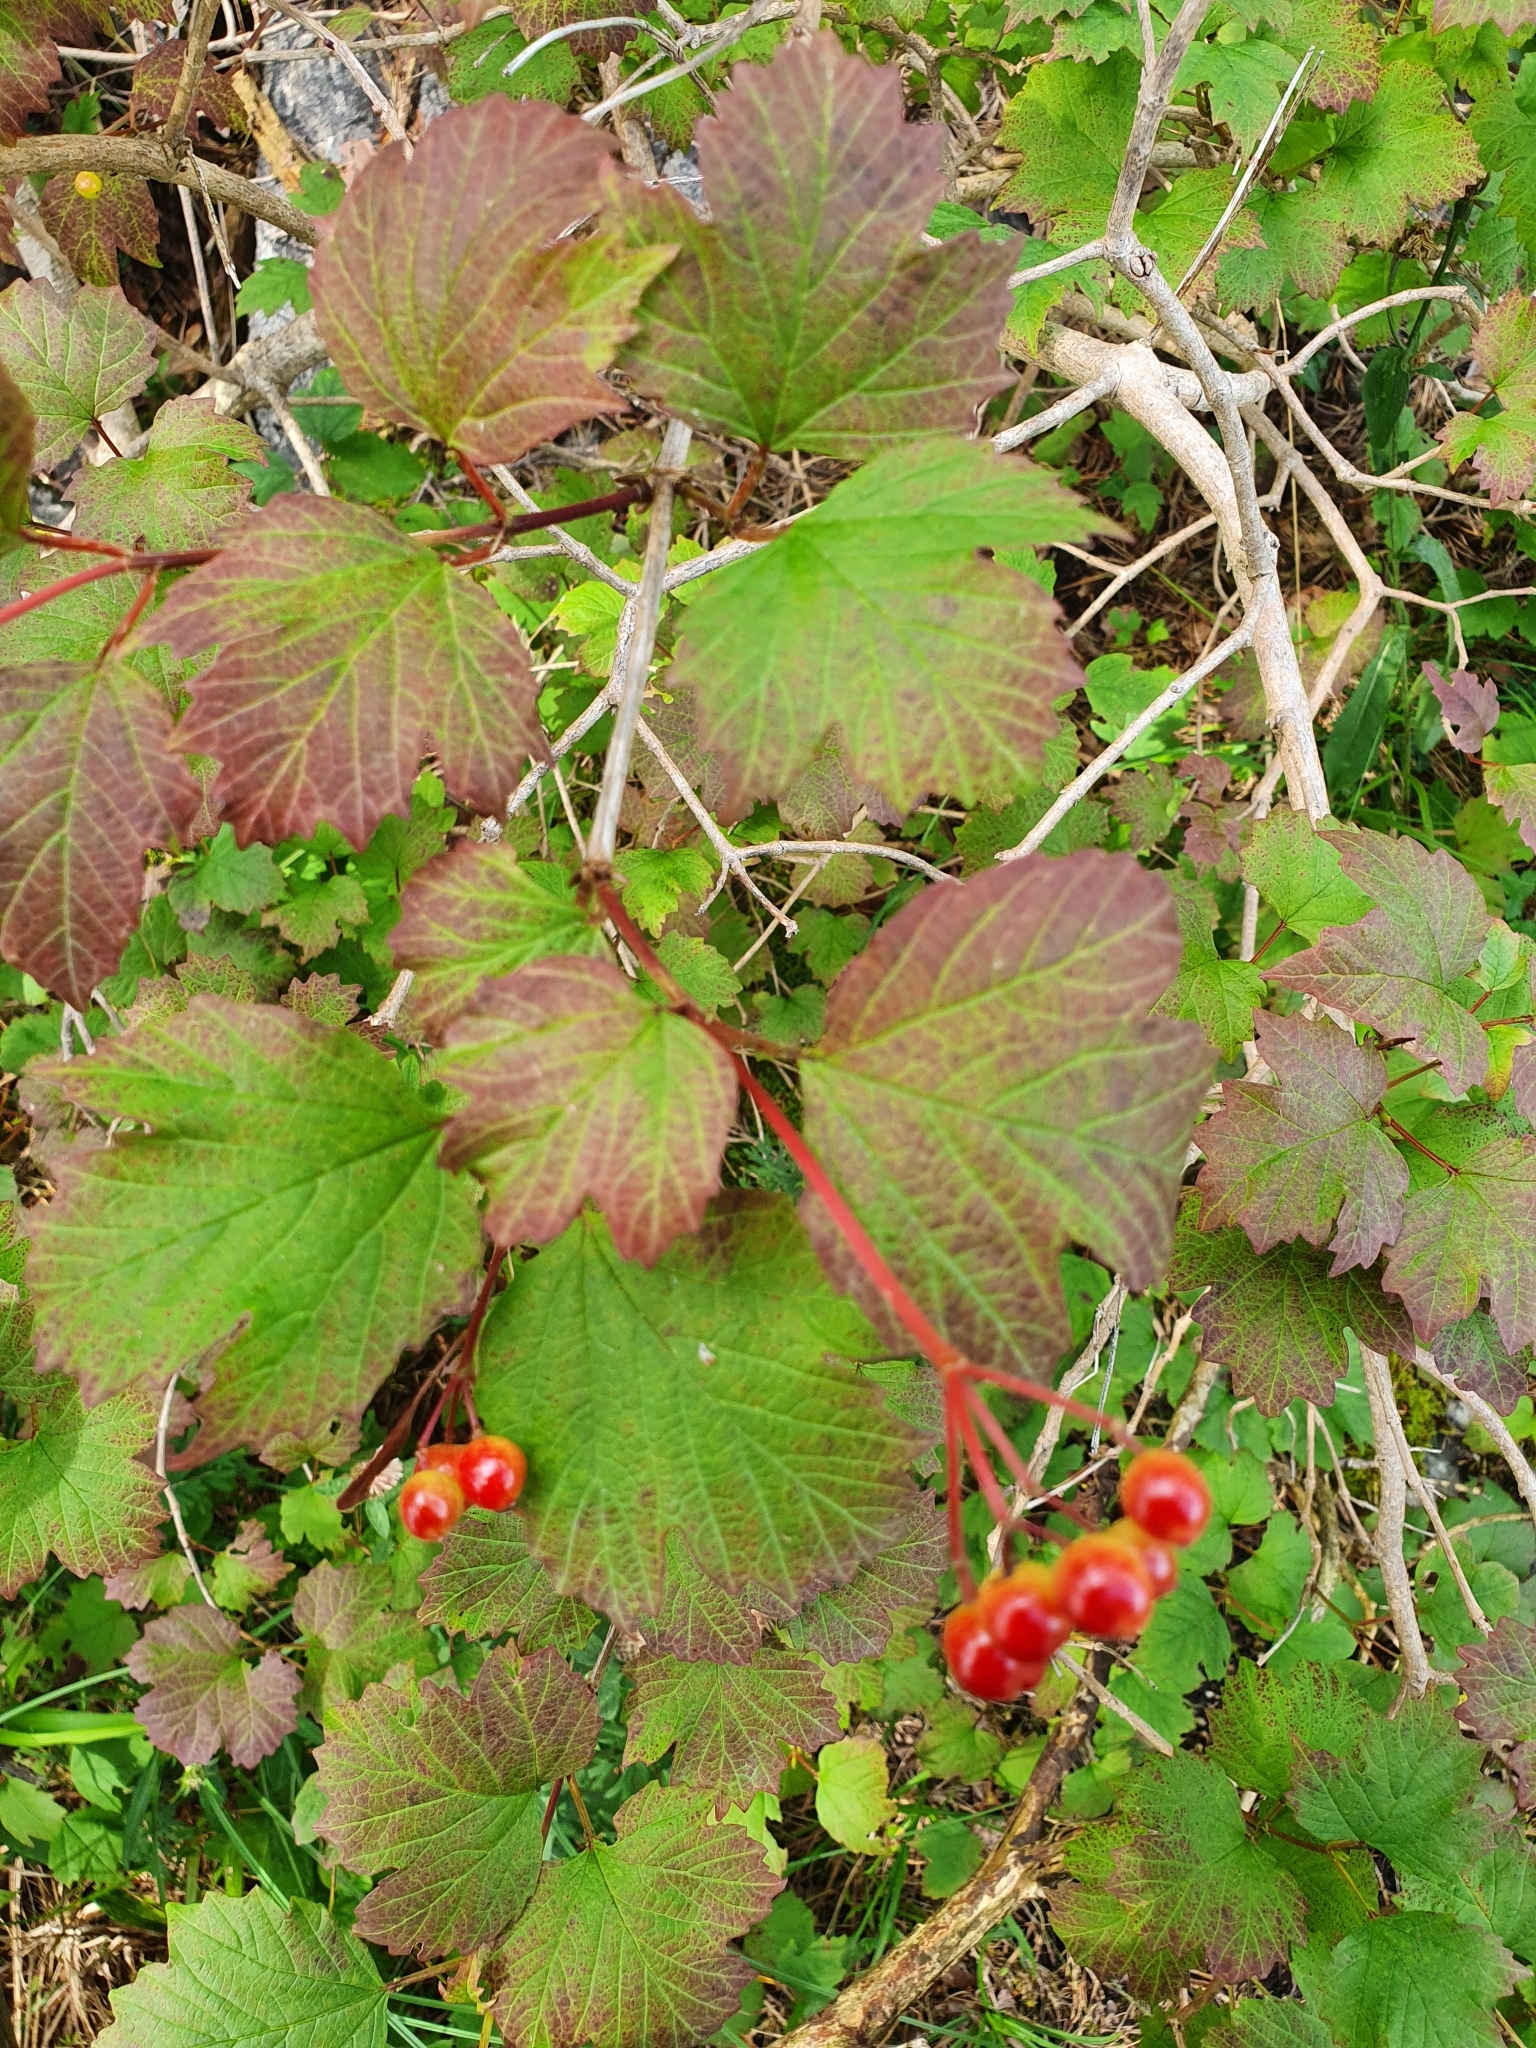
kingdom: Plantae
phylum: Tracheophyta
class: Magnoliopsida
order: Dipsacales
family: Viburnaceae
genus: Viburnum
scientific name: Viburnum opulus
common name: Guelder-rose
